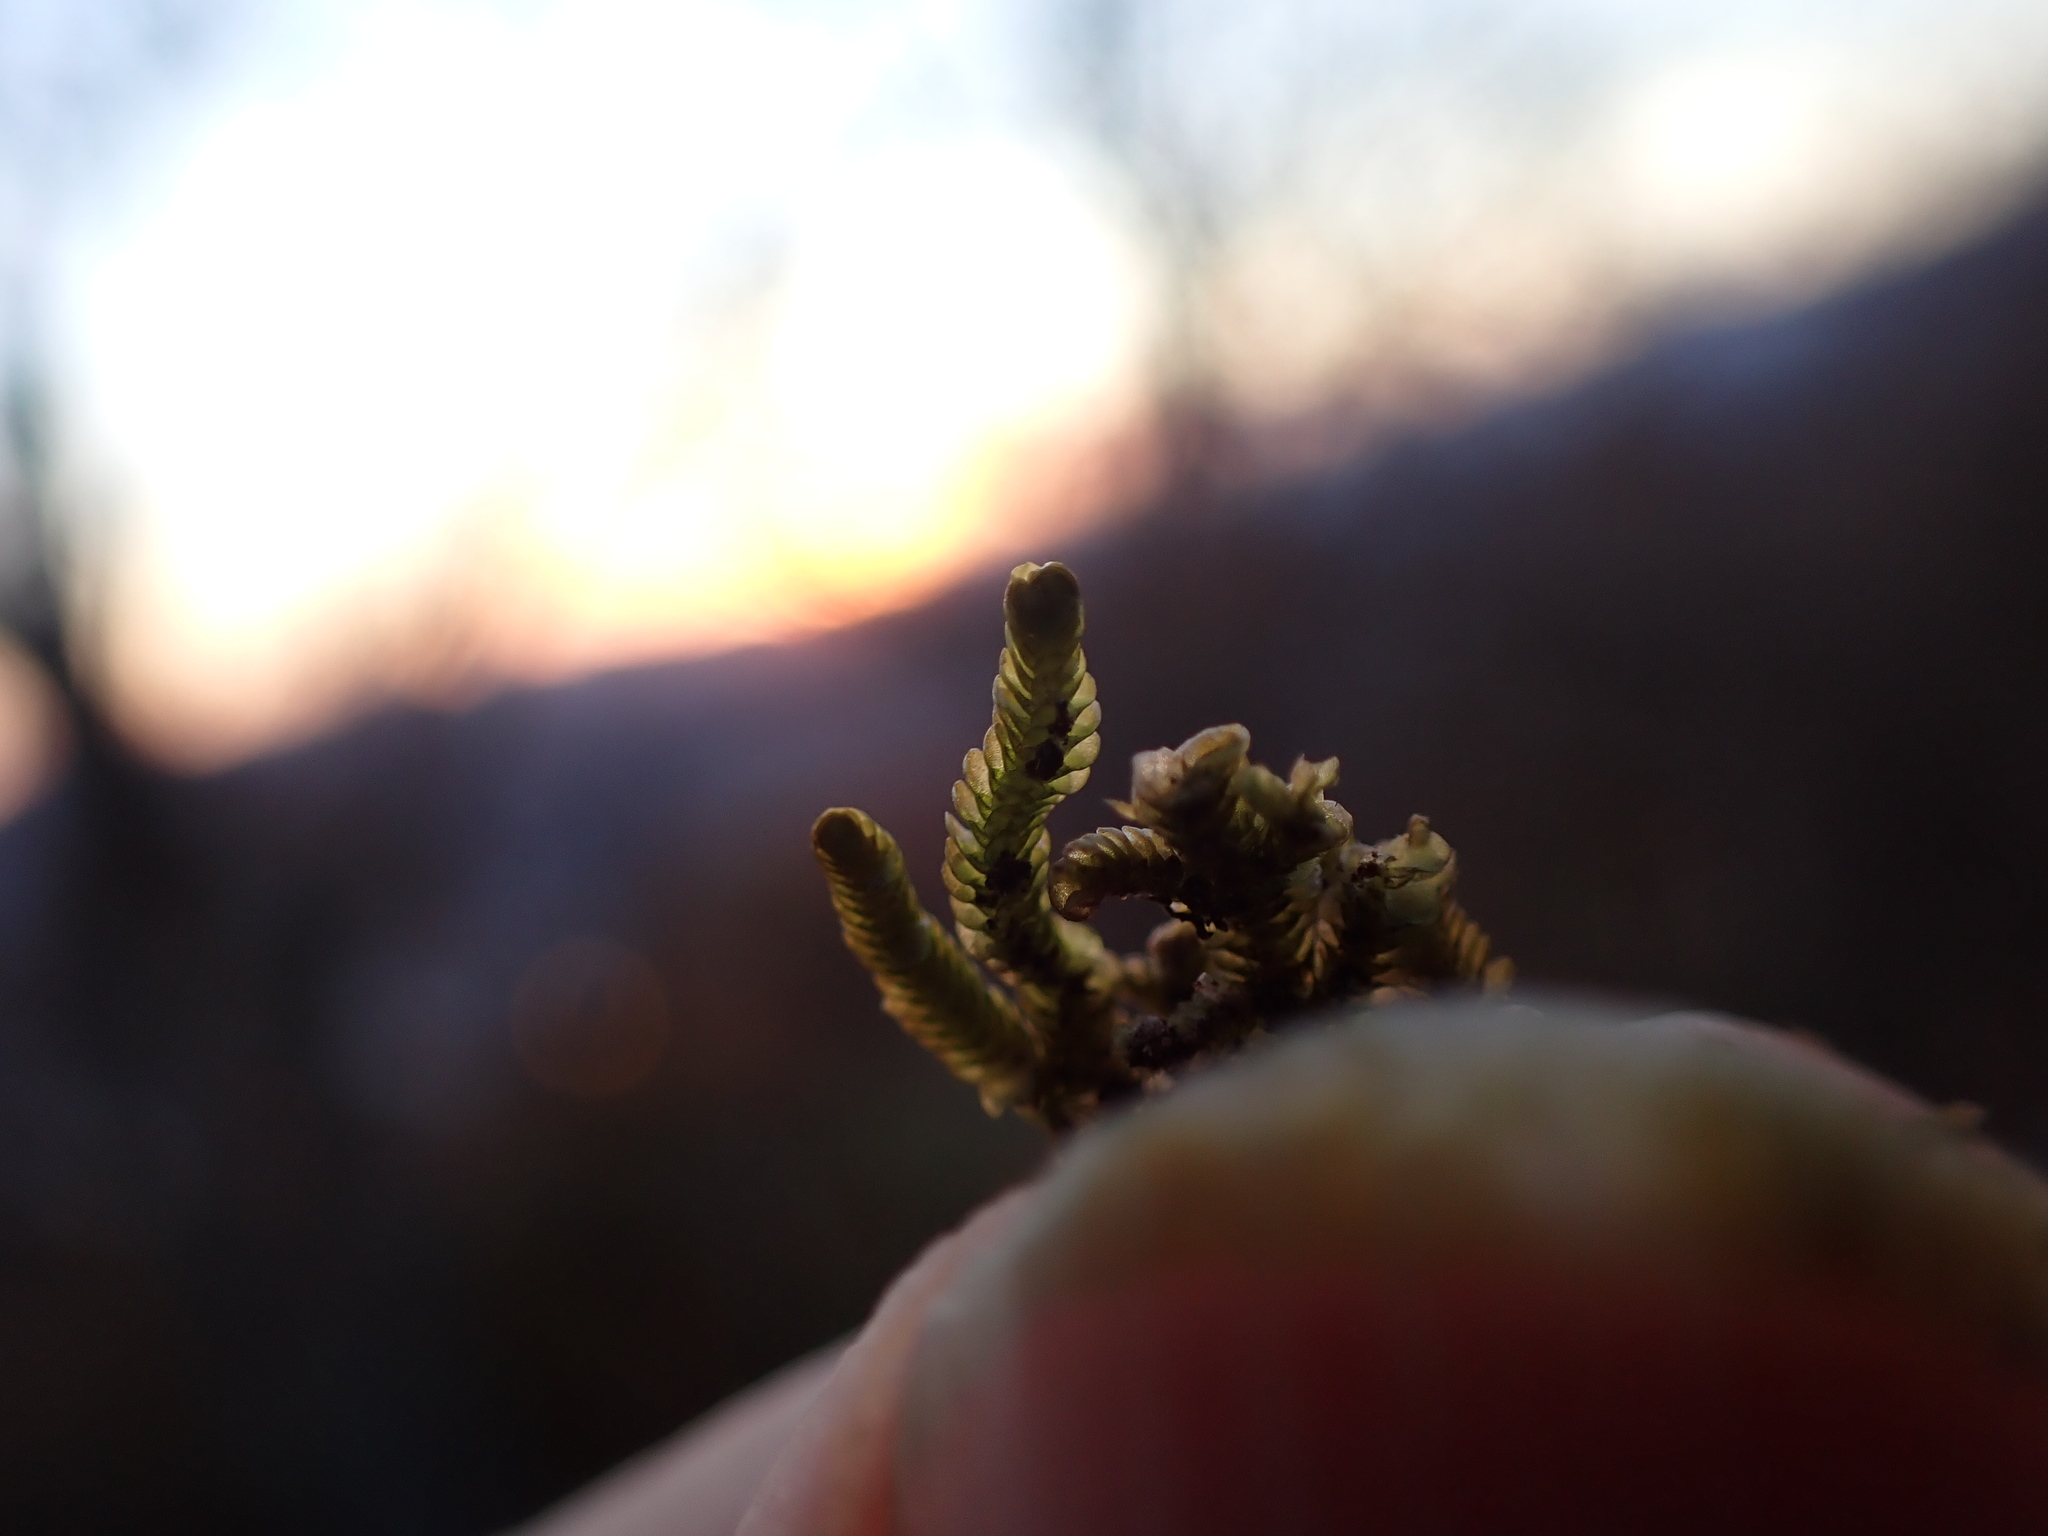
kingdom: Plantae
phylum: Marchantiophyta
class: Jungermanniopsida
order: Porellales
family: Lejeuneaceae
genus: Acrolejeunea
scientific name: Acrolejeunea sandvicensis
